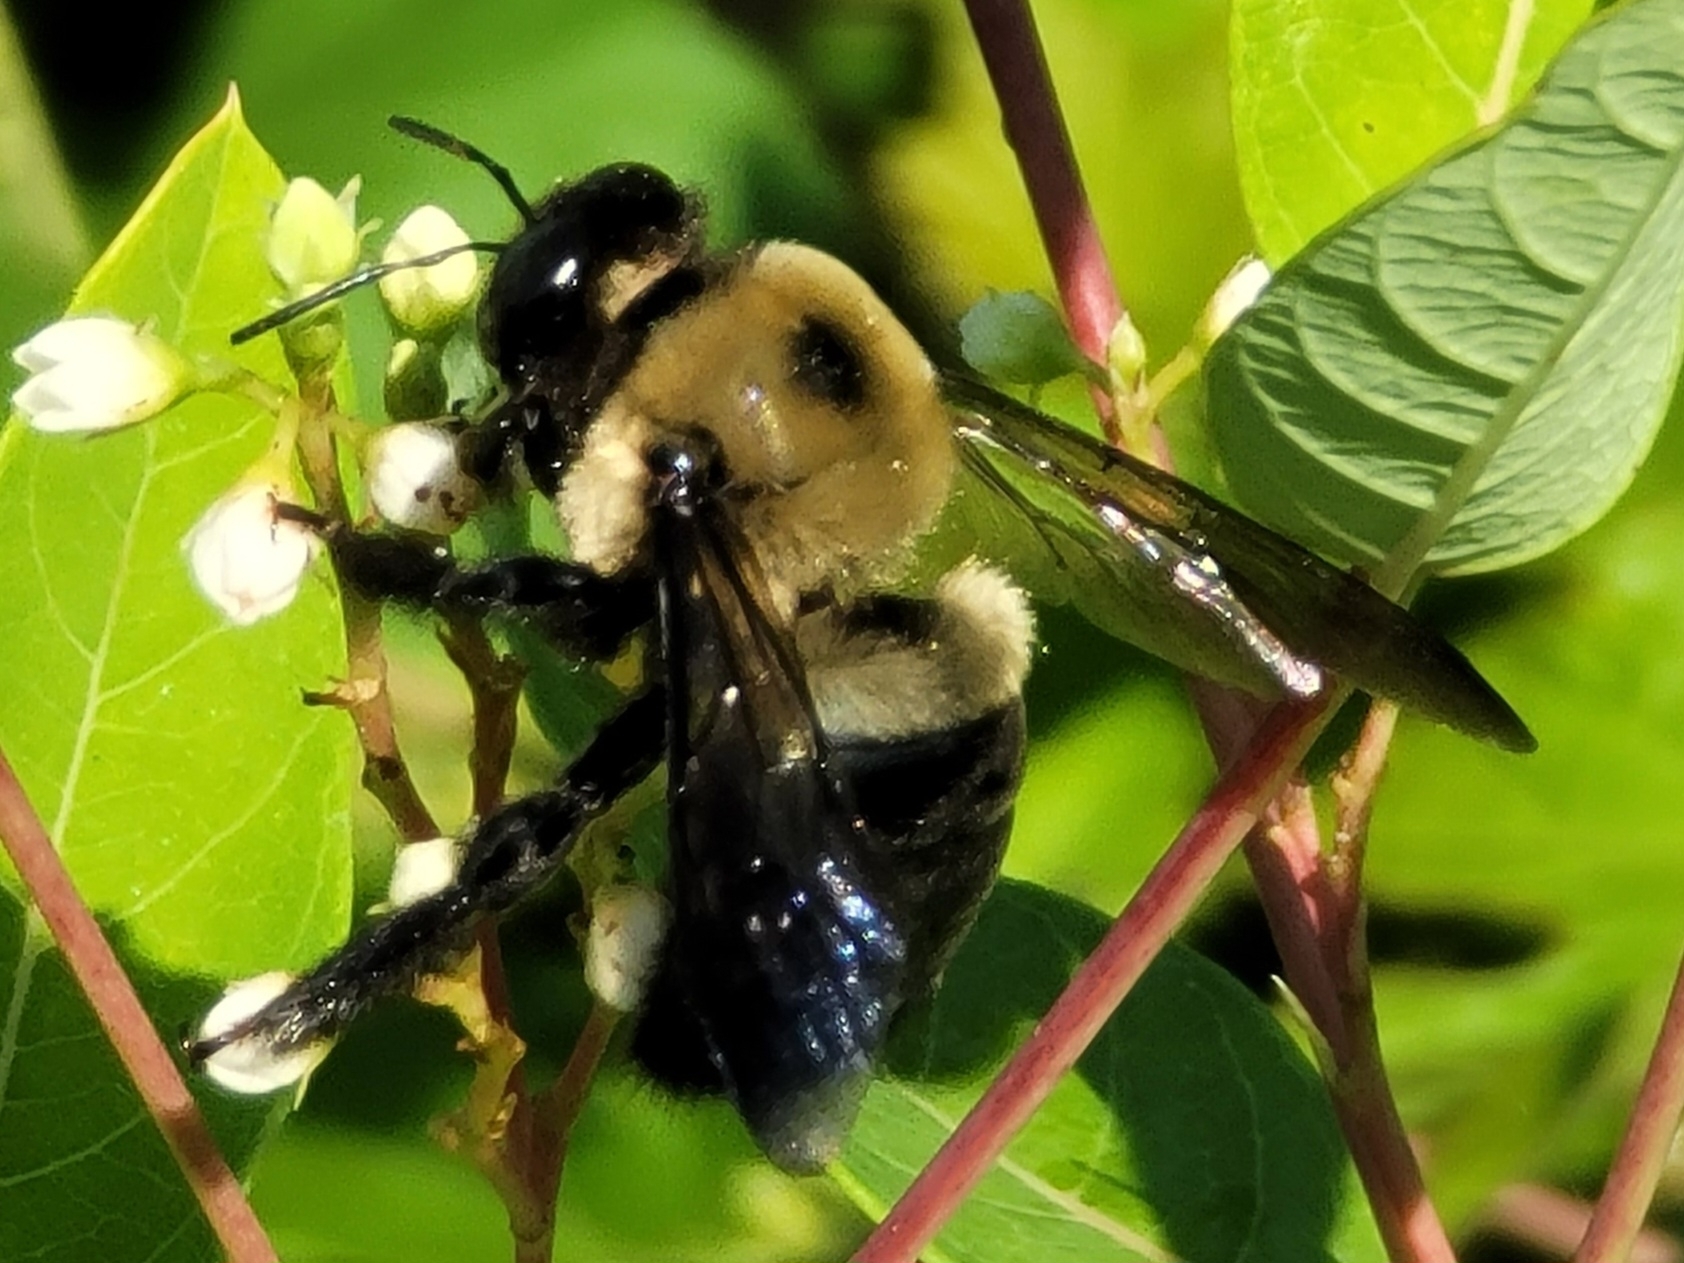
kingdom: Animalia
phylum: Arthropoda
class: Insecta
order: Hymenoptera
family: Apidae
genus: Xylocopa
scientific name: Xylocopa virginica
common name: Carpenter bee
